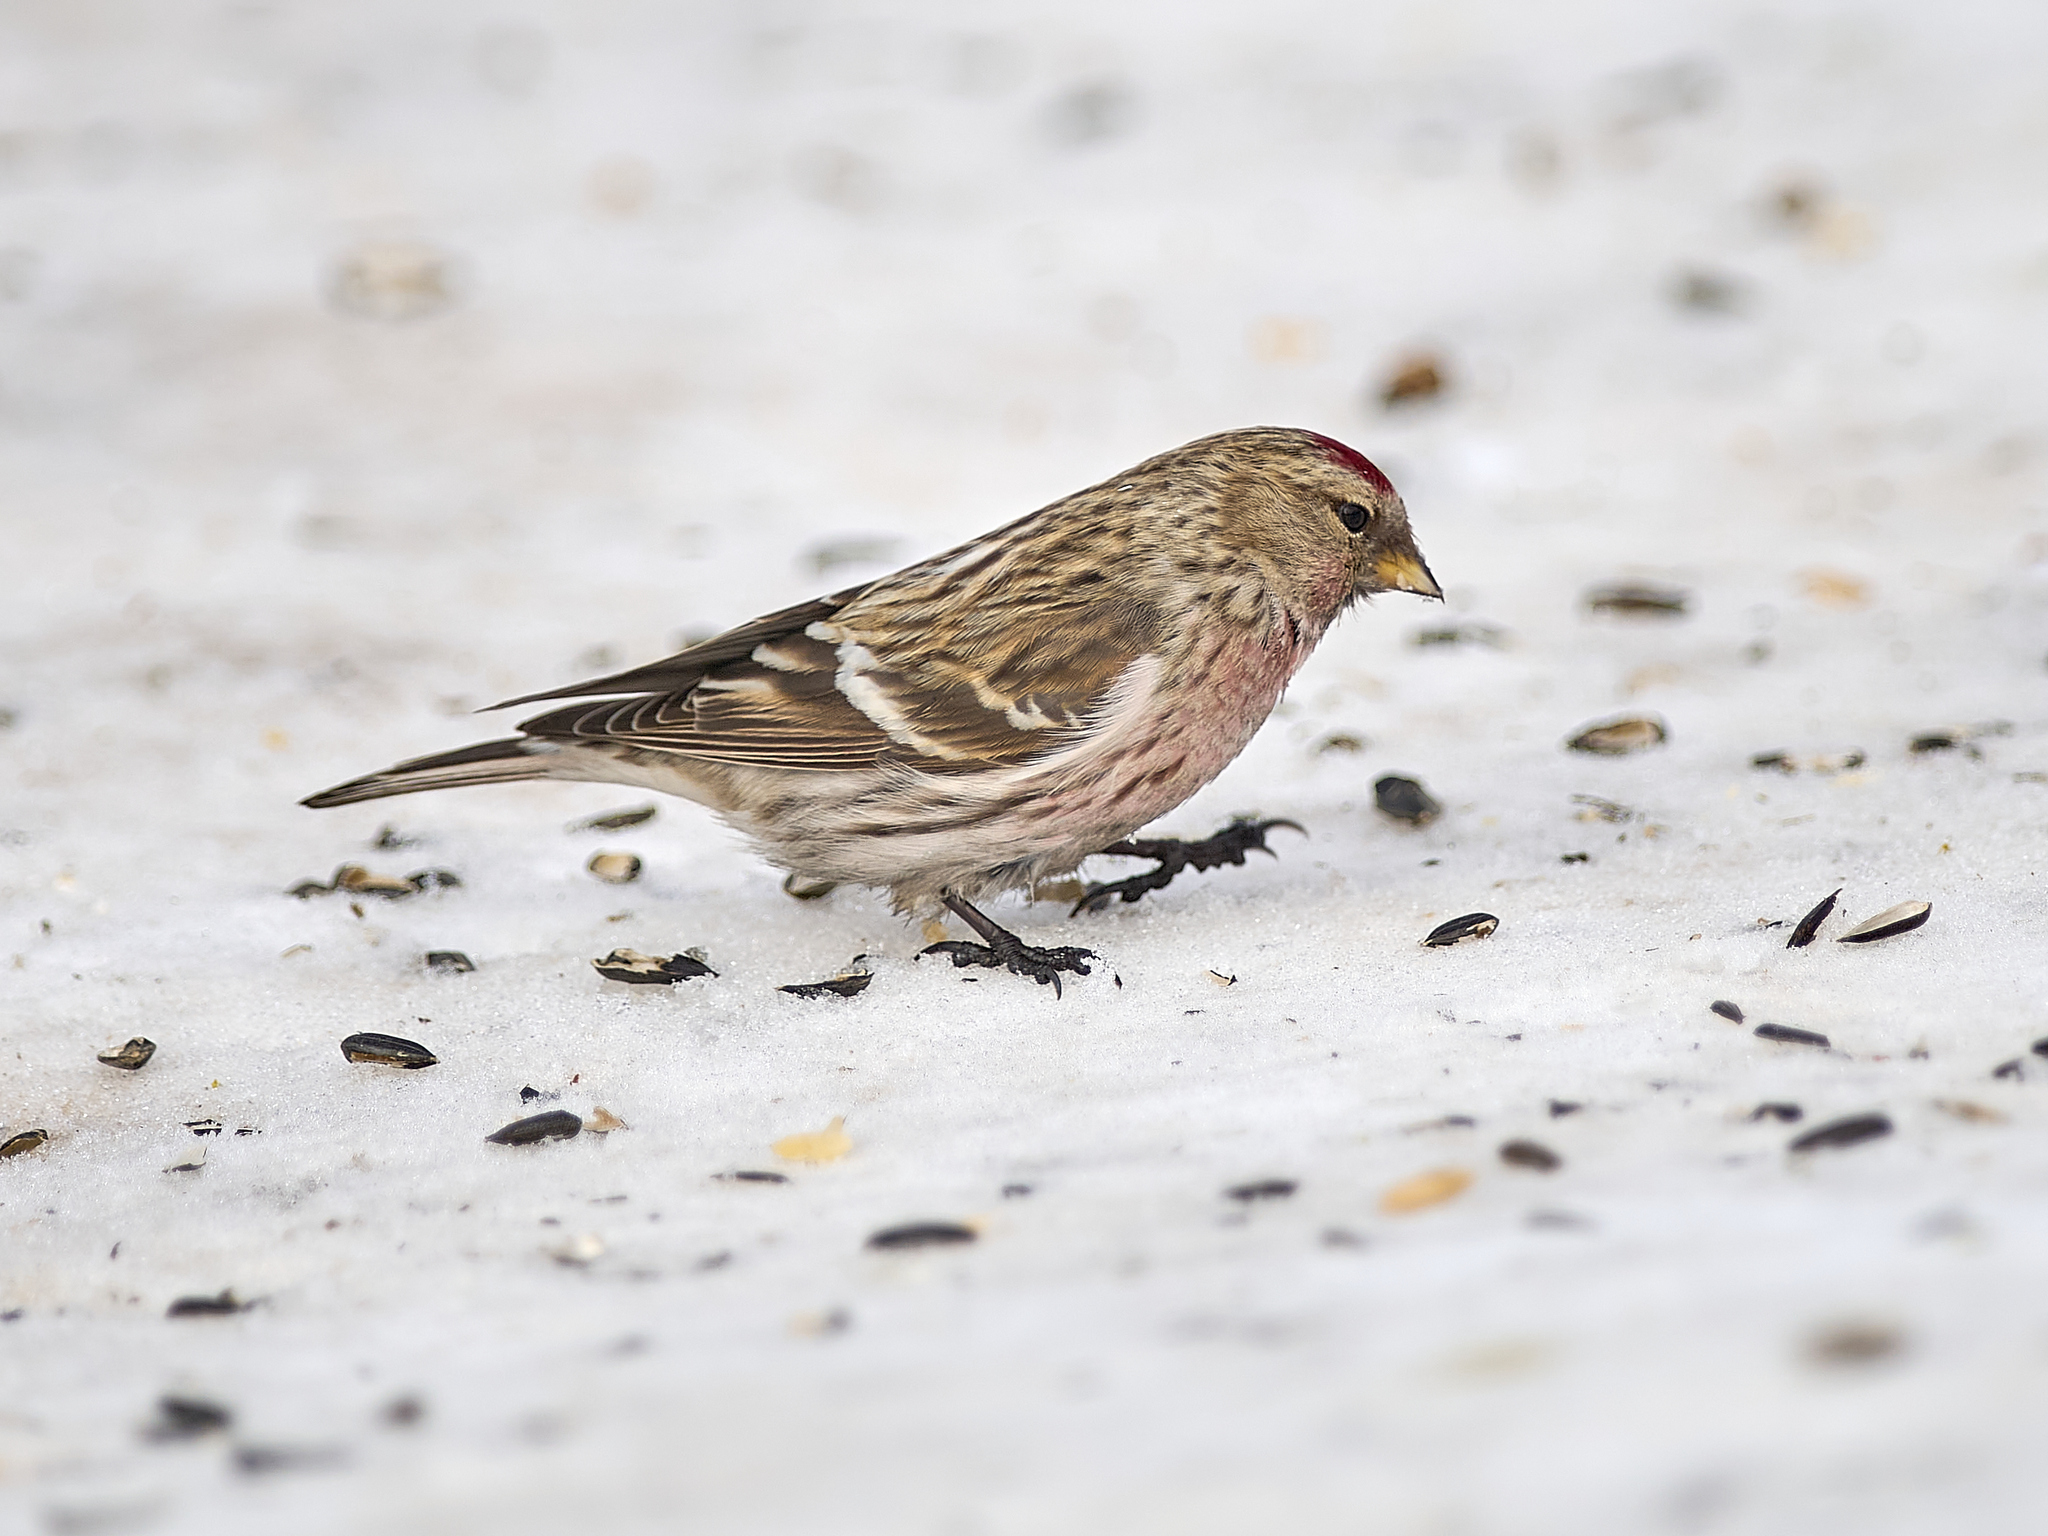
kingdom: Animalia
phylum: Chordata
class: Aves
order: Passeriformes
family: Fringillidae
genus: Acanthis
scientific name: Acanthis flammea
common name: Common redpoll
